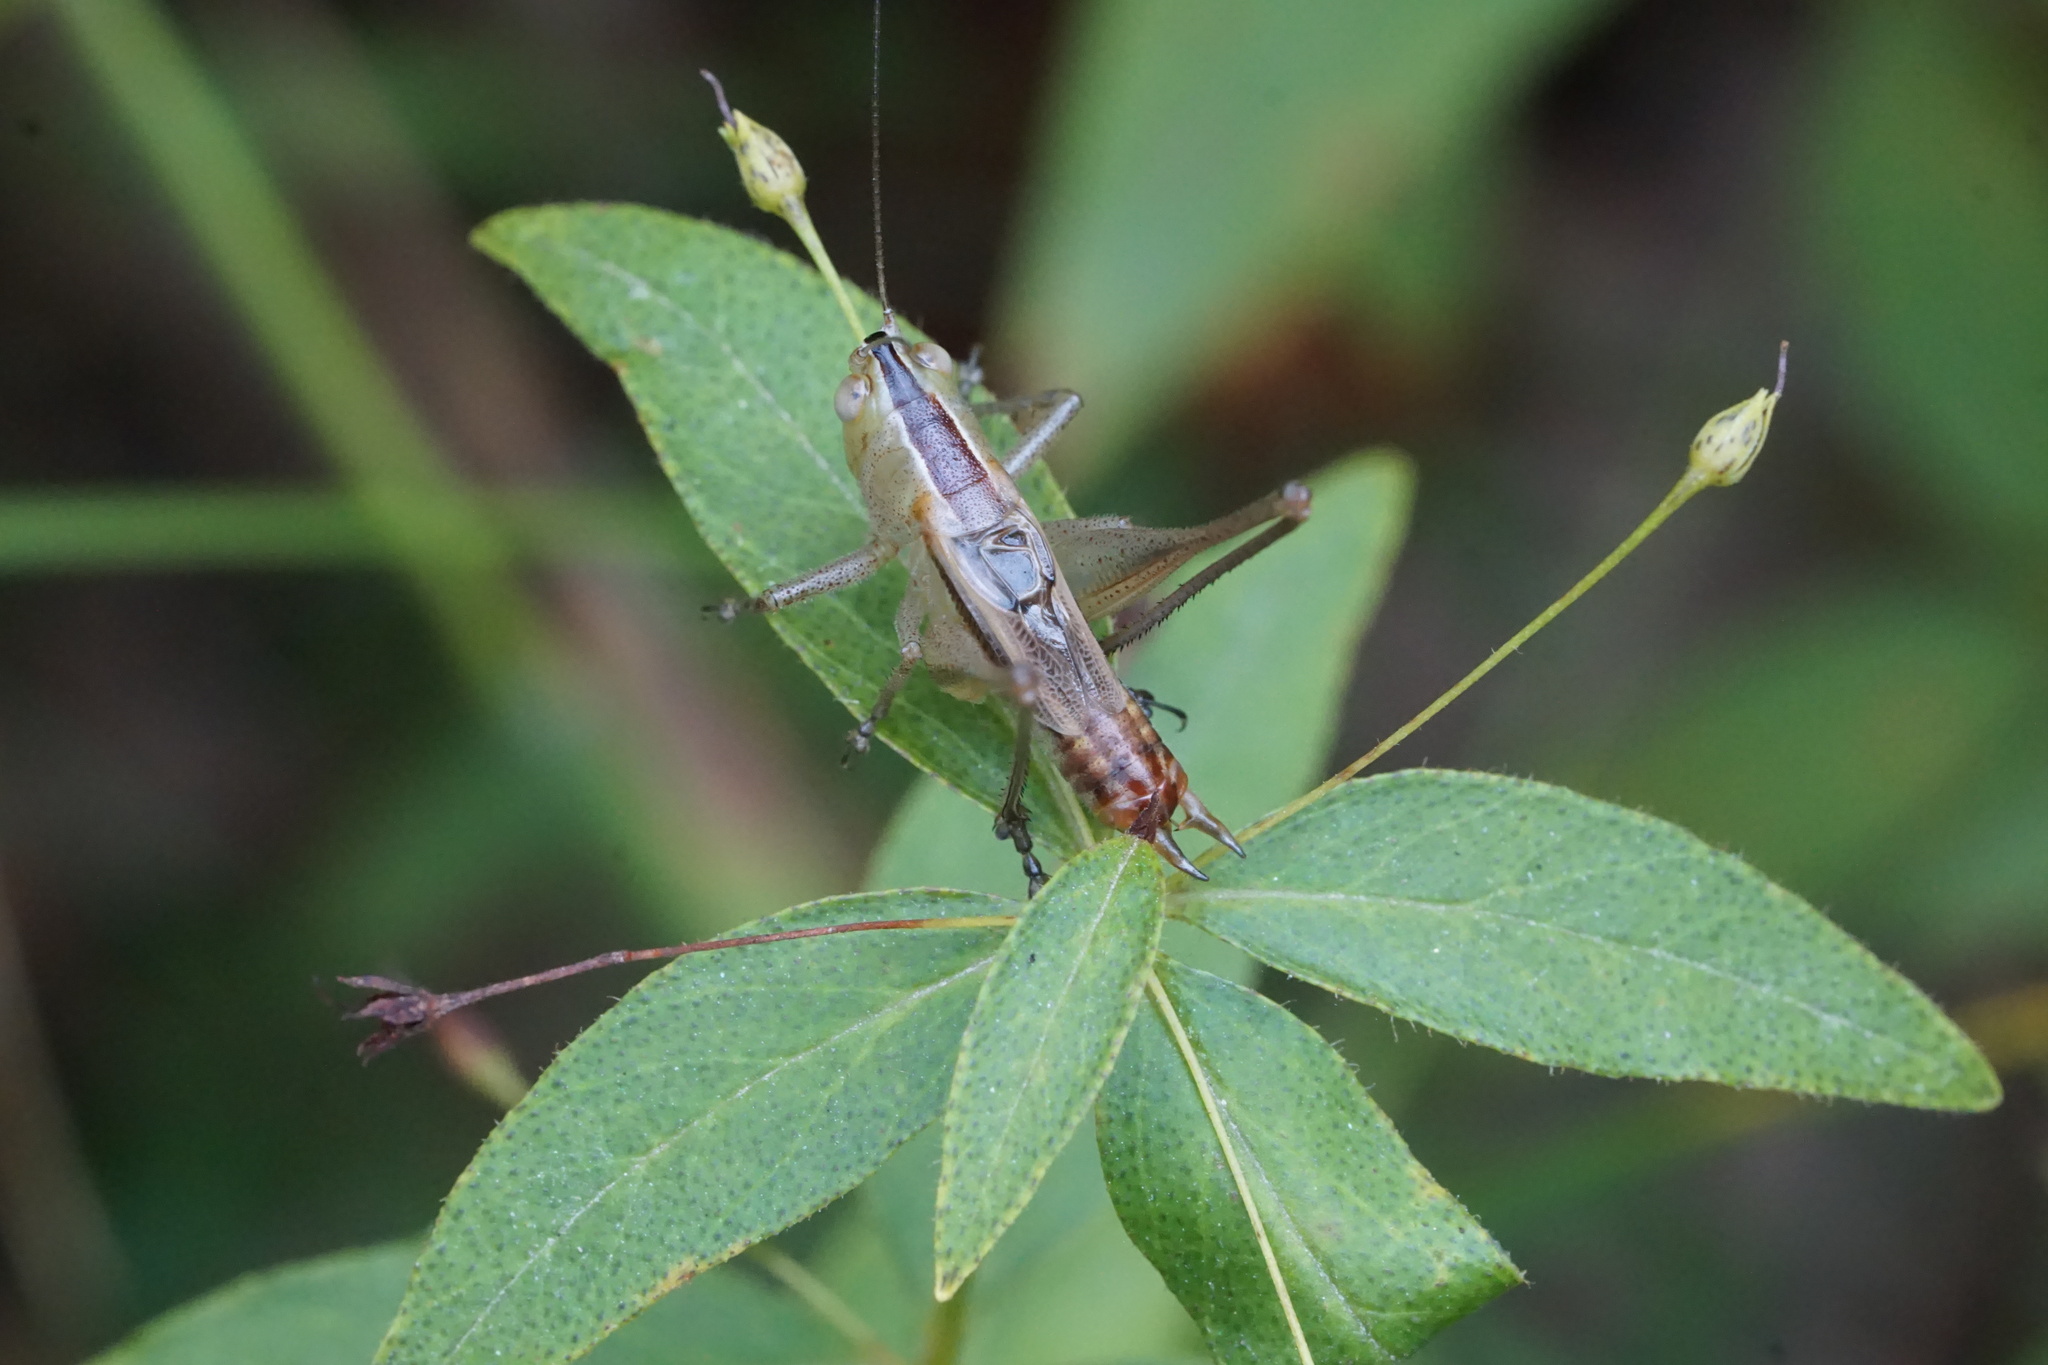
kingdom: Animalia
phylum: Arthropoda
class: Insecta
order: Orthoptera
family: Tettigoniidae
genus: Conocephalus
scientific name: Conocephalus strictus
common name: Straight-lanced katydid
